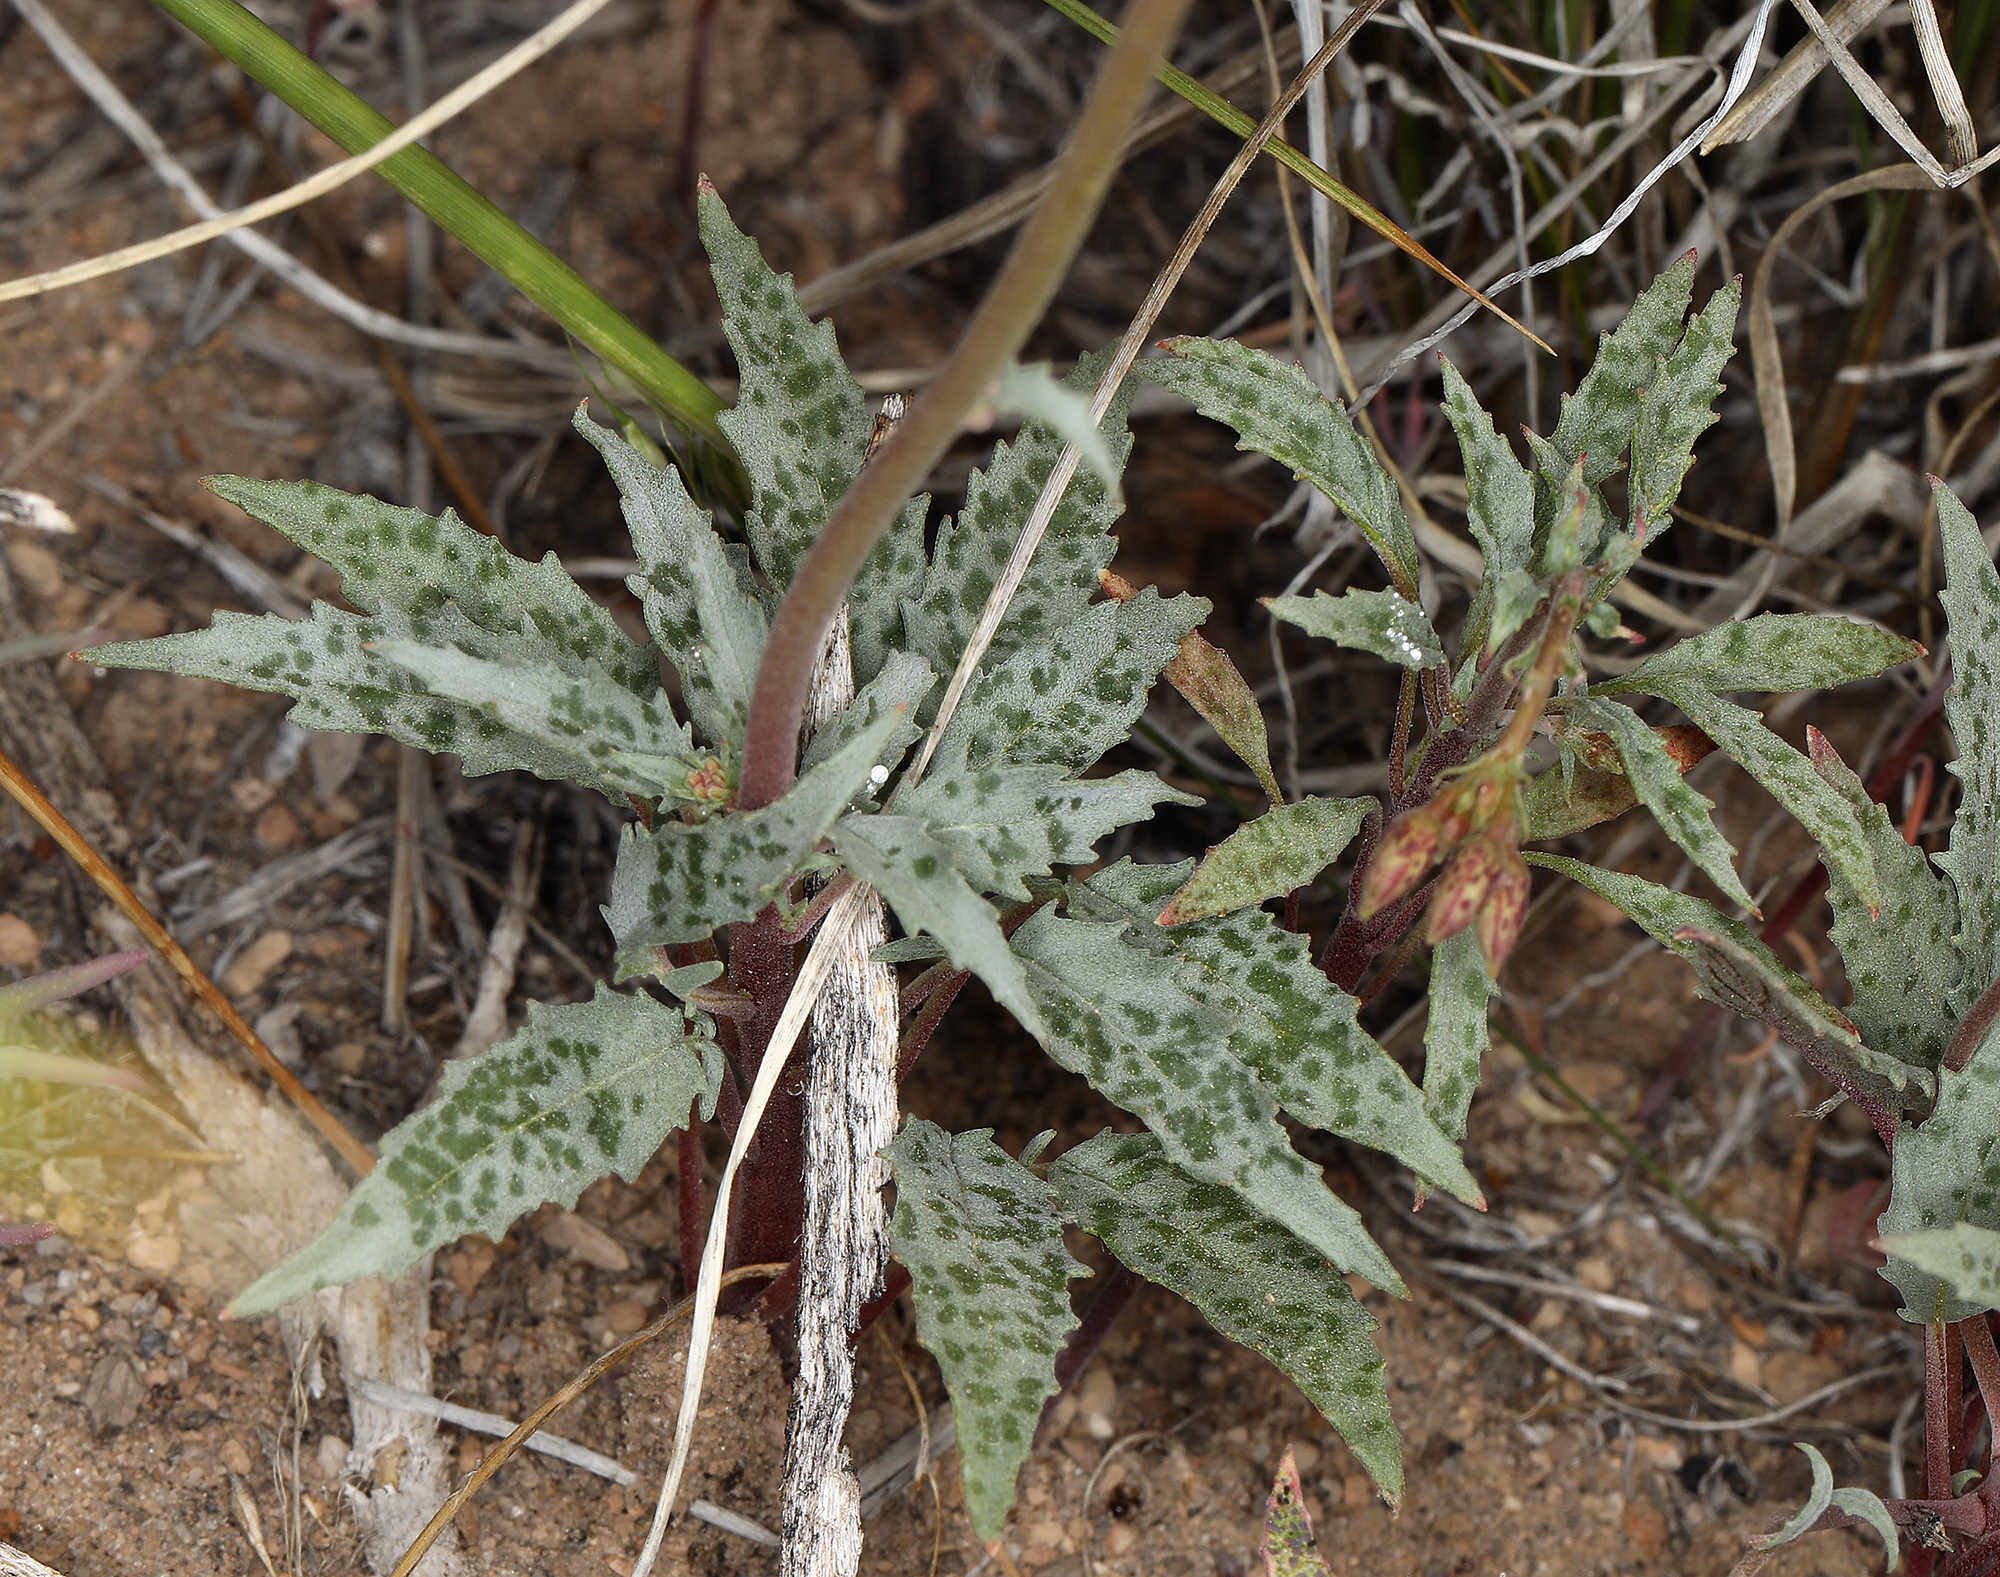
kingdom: Plantae
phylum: Tracheophyta
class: Magnoliopsida
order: Myrtales
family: Onagraceae
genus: Chylismia
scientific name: Chylismia claviformis
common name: Browneyes
